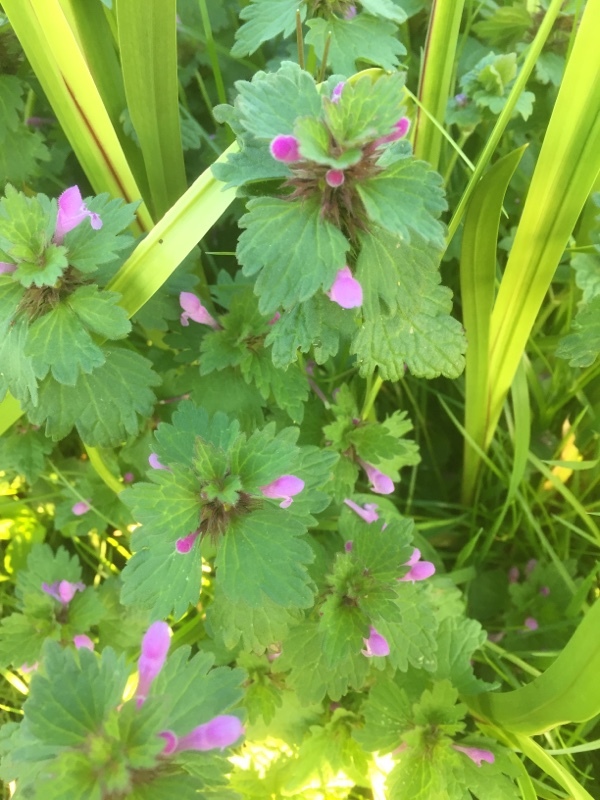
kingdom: Plantae
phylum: Tracheophyta
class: Magnoliopsida
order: Lamiales
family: Lamiaceae
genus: Lamium
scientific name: Lamium hybridum
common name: Cut-leaved dead-nettle
